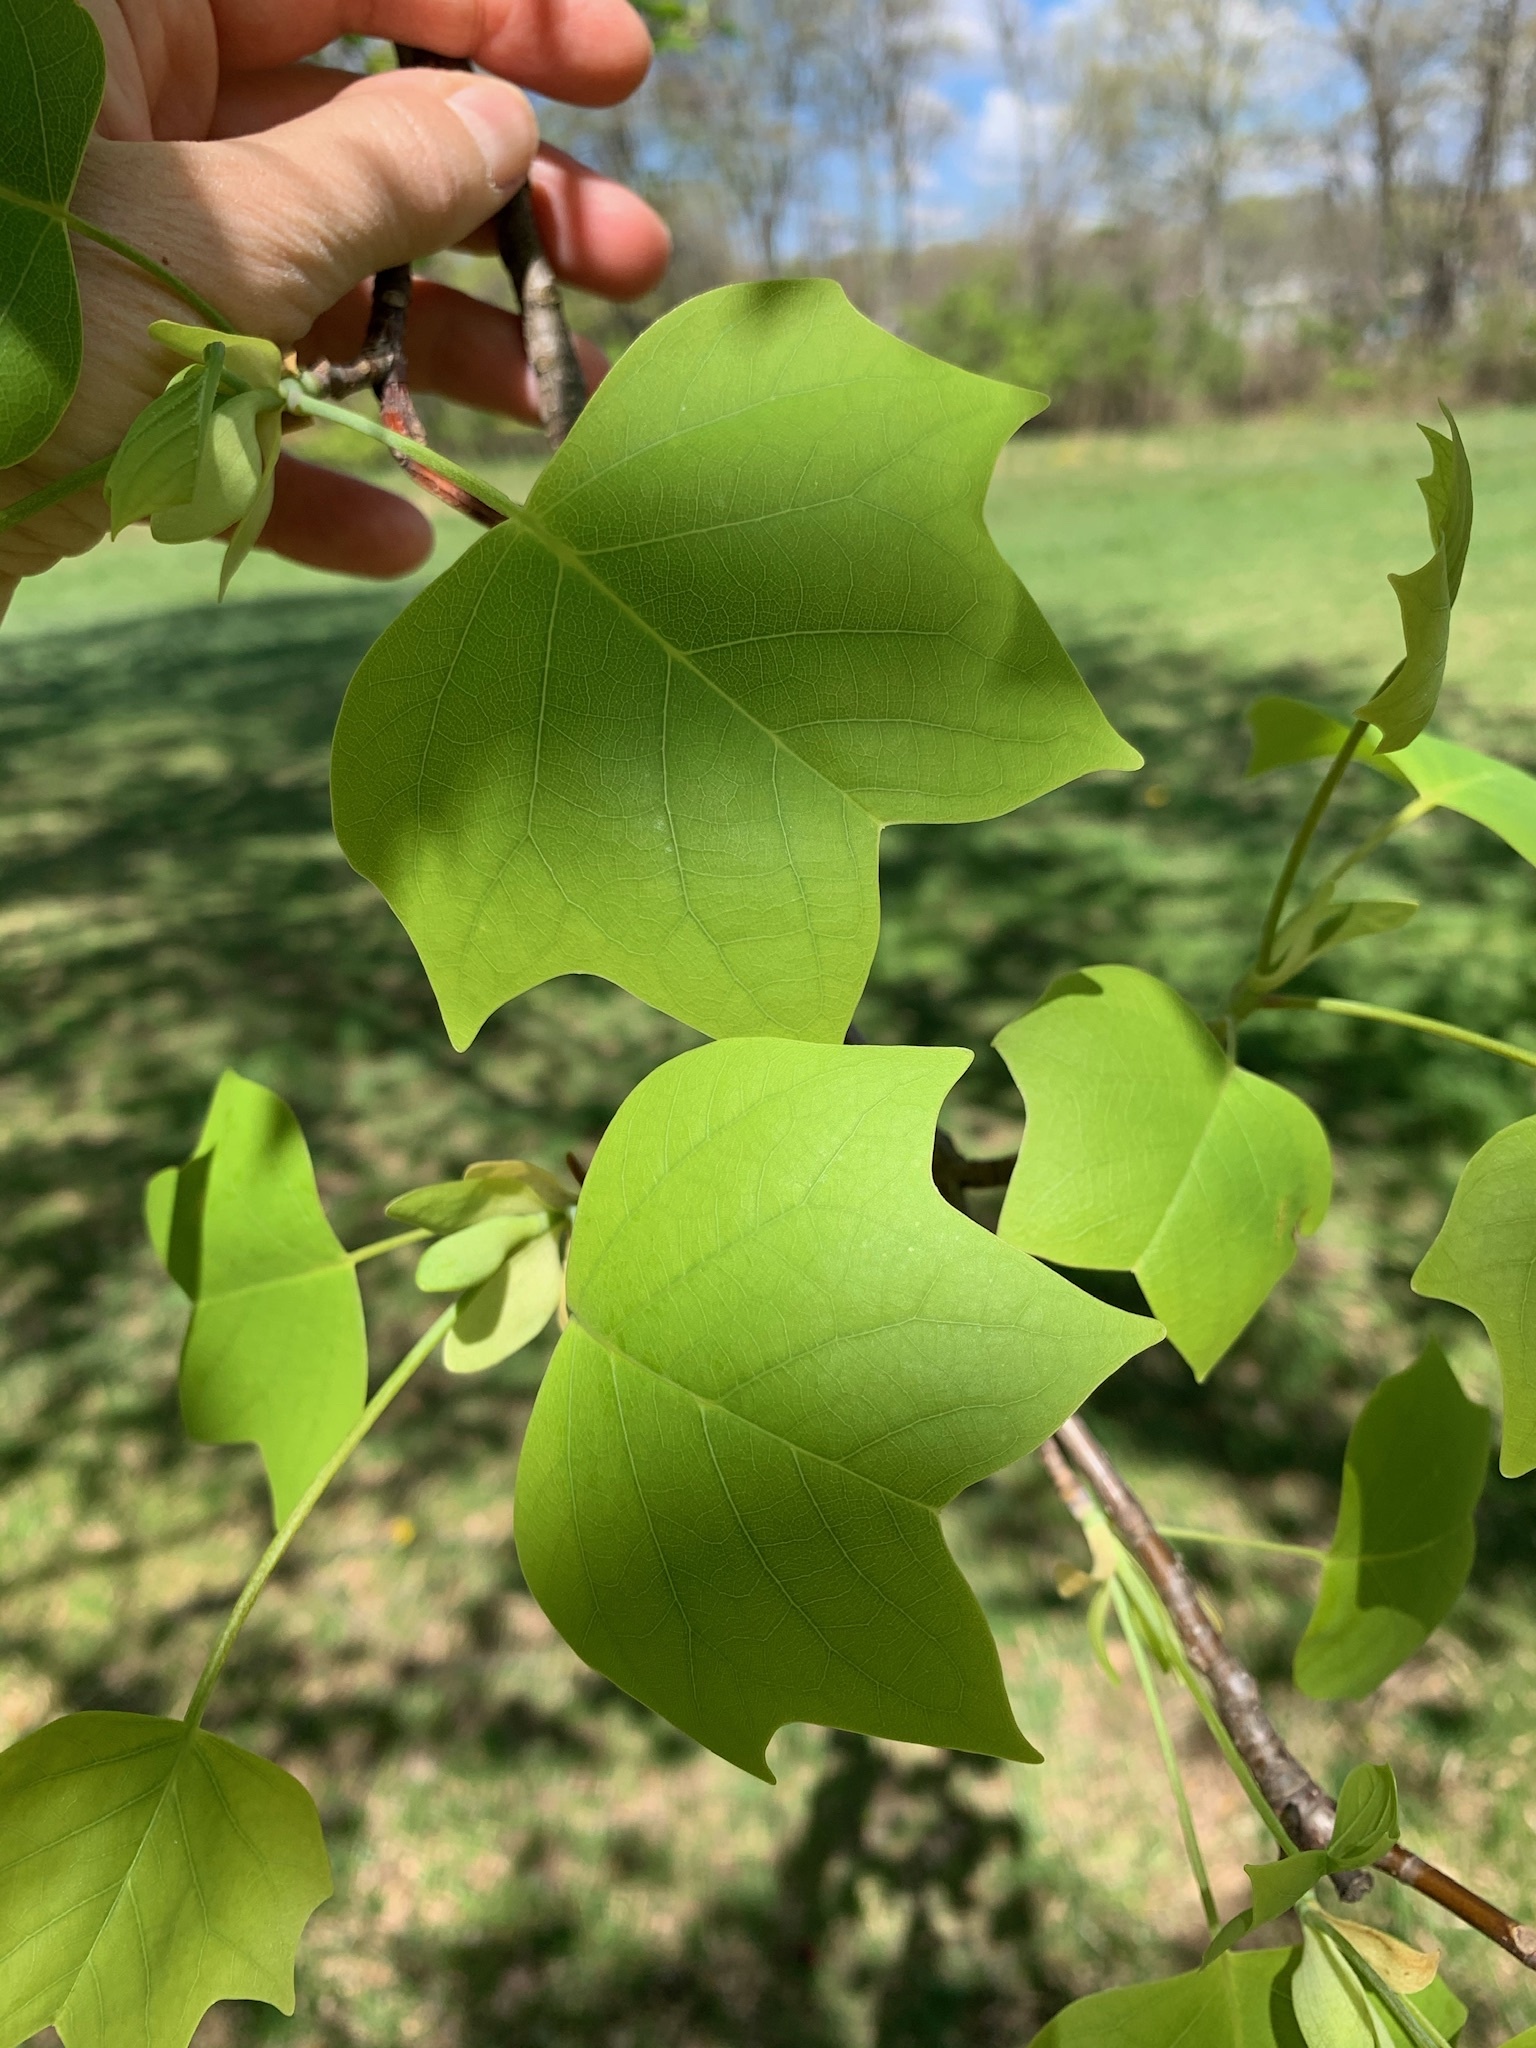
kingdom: Plantae
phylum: Tracheophyta
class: Magnoliopsida
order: Magnoliales
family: Magnoliaceae
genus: Liriodendron
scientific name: Liriodendron tulipifera
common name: Tulip tree
